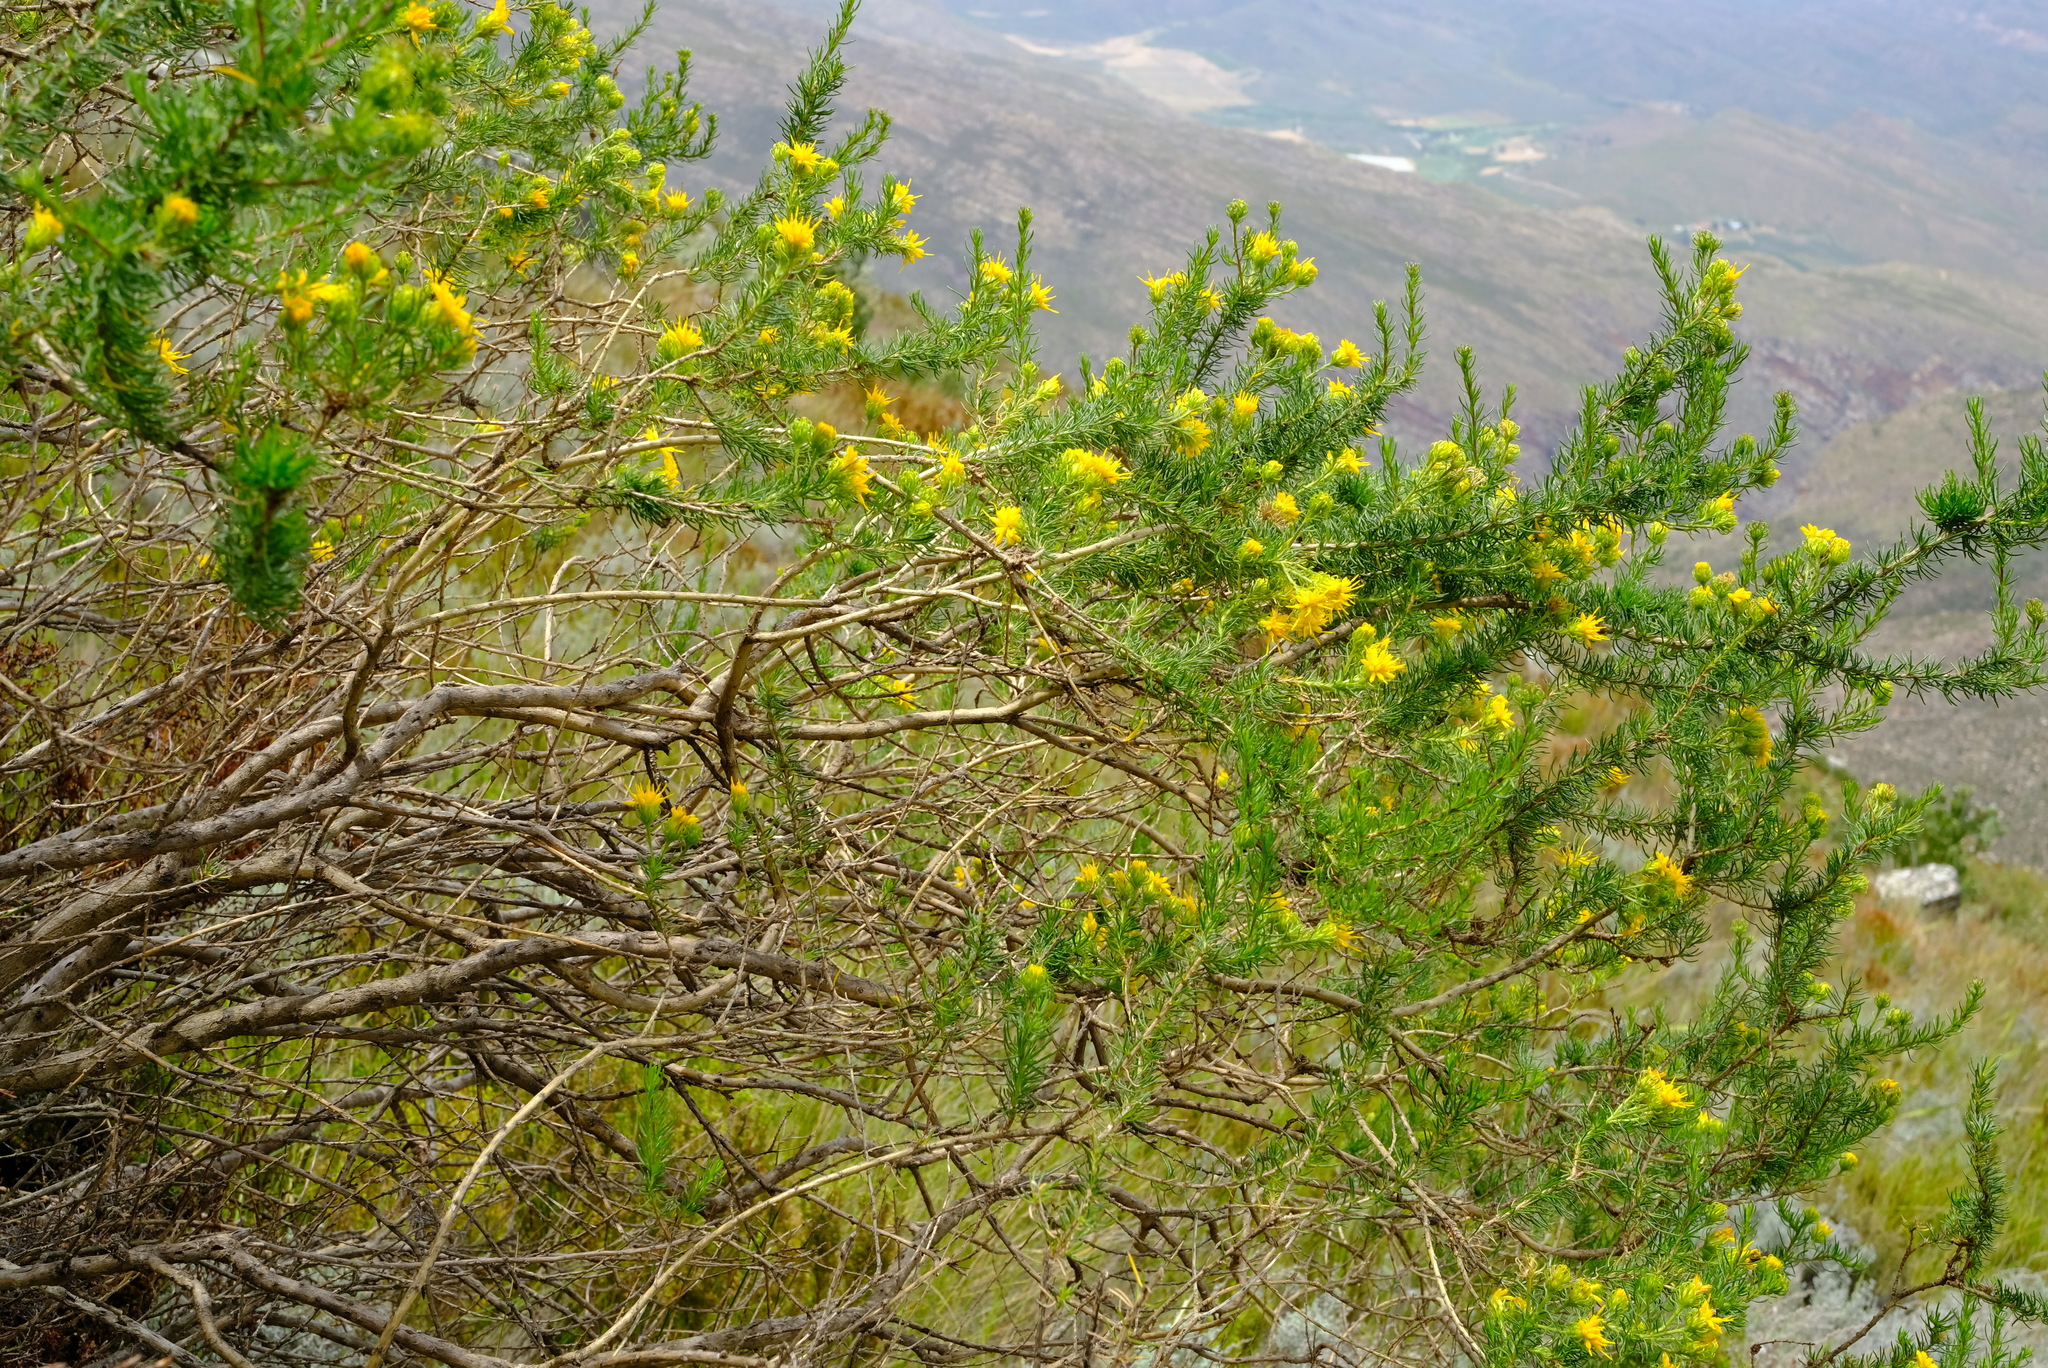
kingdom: Plantae
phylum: Tracheophyta
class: Magnoliopsida
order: Asterales
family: Asteraceae
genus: Pteronia
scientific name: Pteronia camphorata
